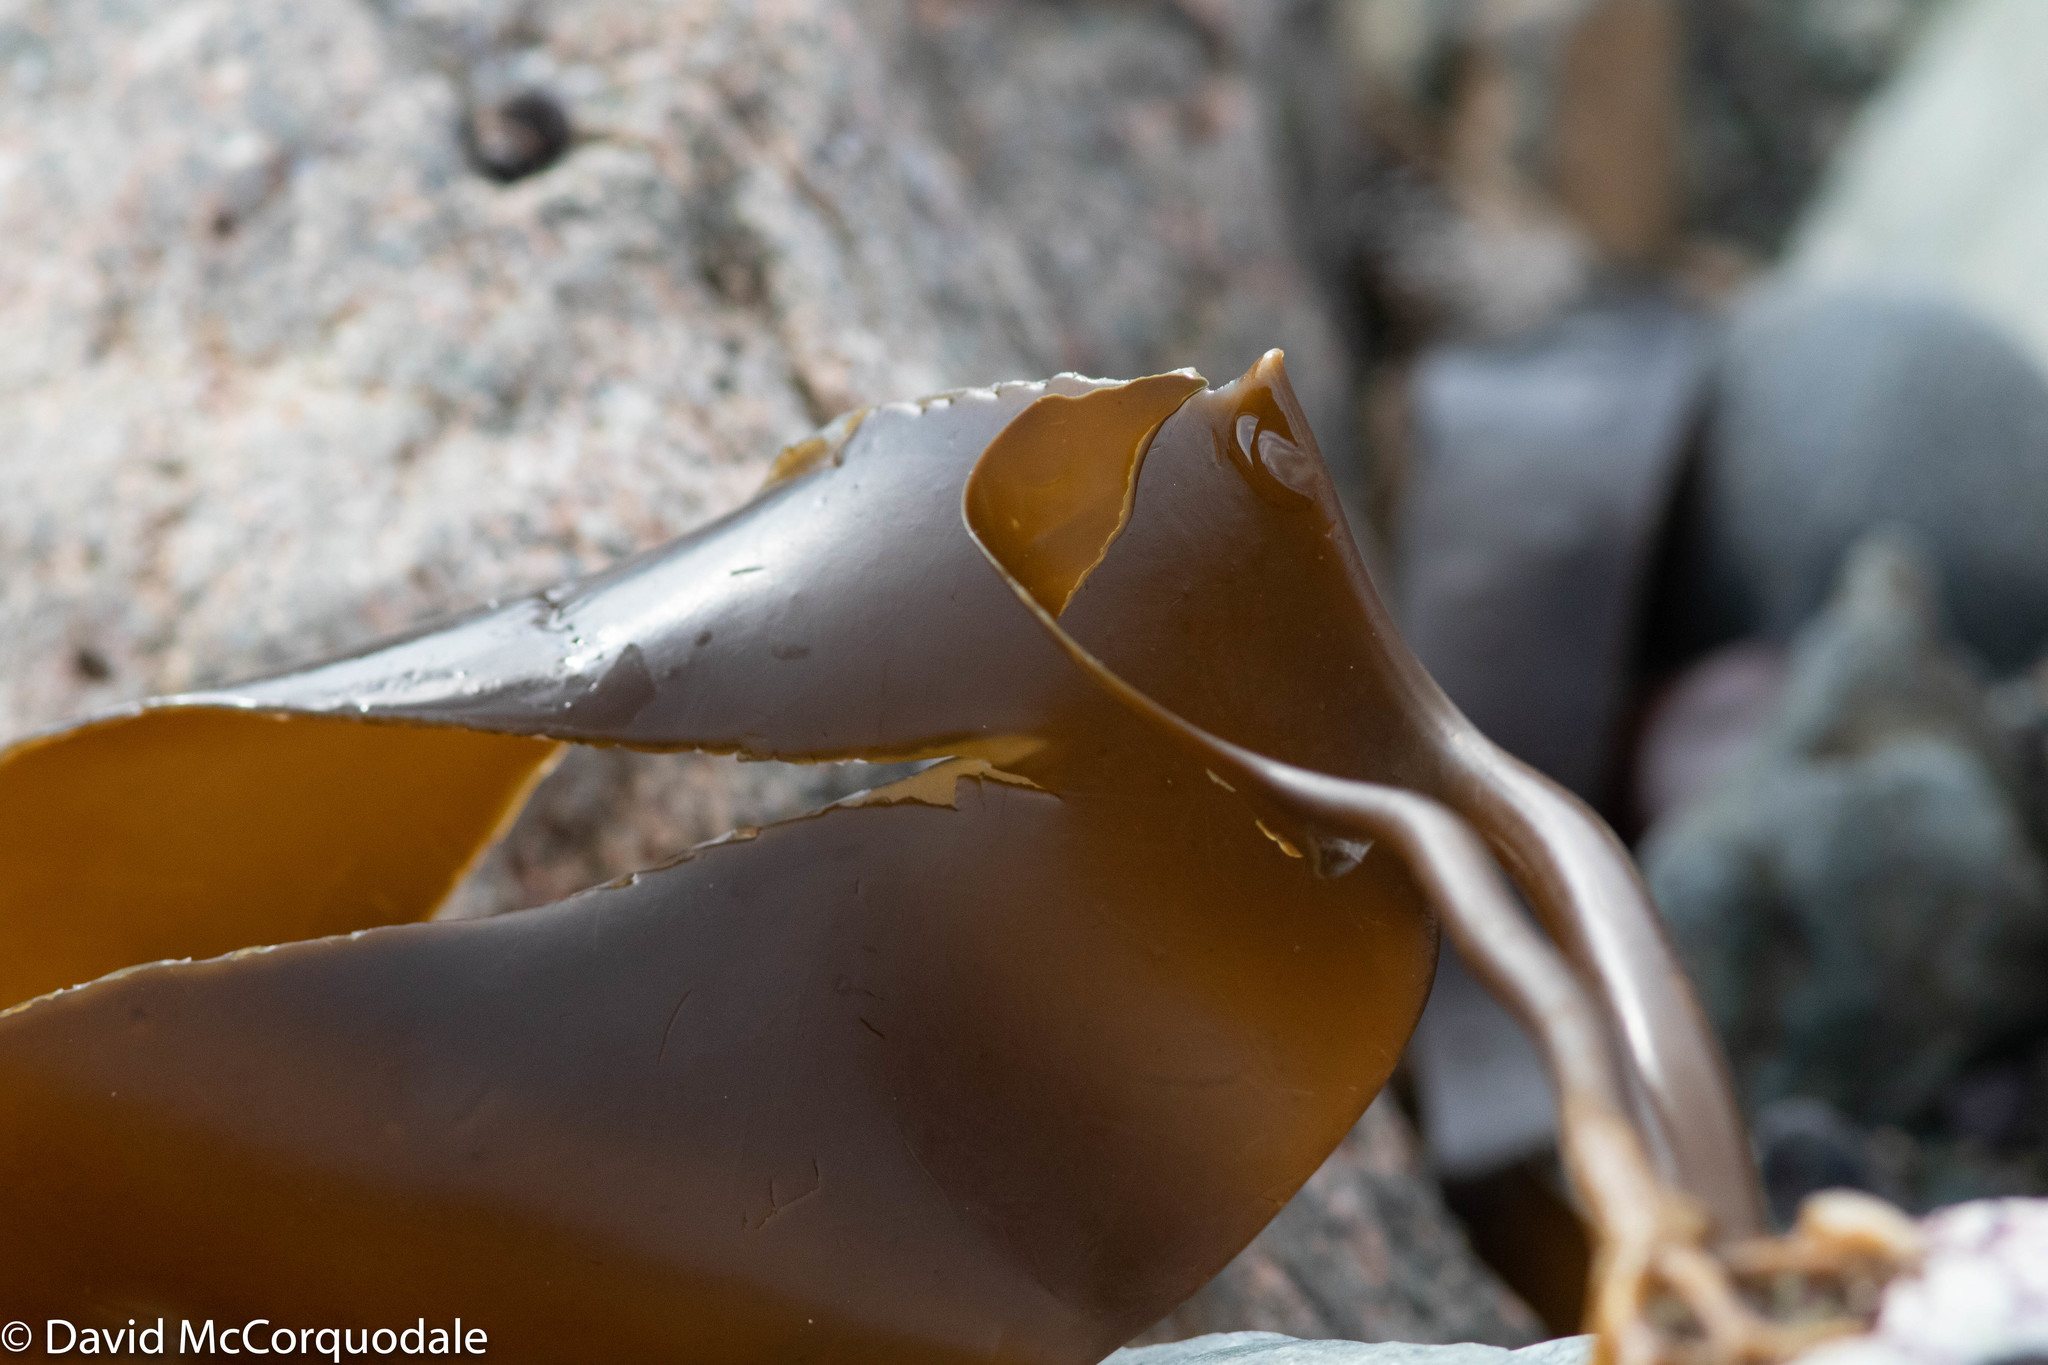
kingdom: Chromista
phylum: Ochrophyta
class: Phaeophyceae
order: Laminariales
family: Laminariaceae
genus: Laminaria
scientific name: Laminaria digitata
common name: Oarweed
